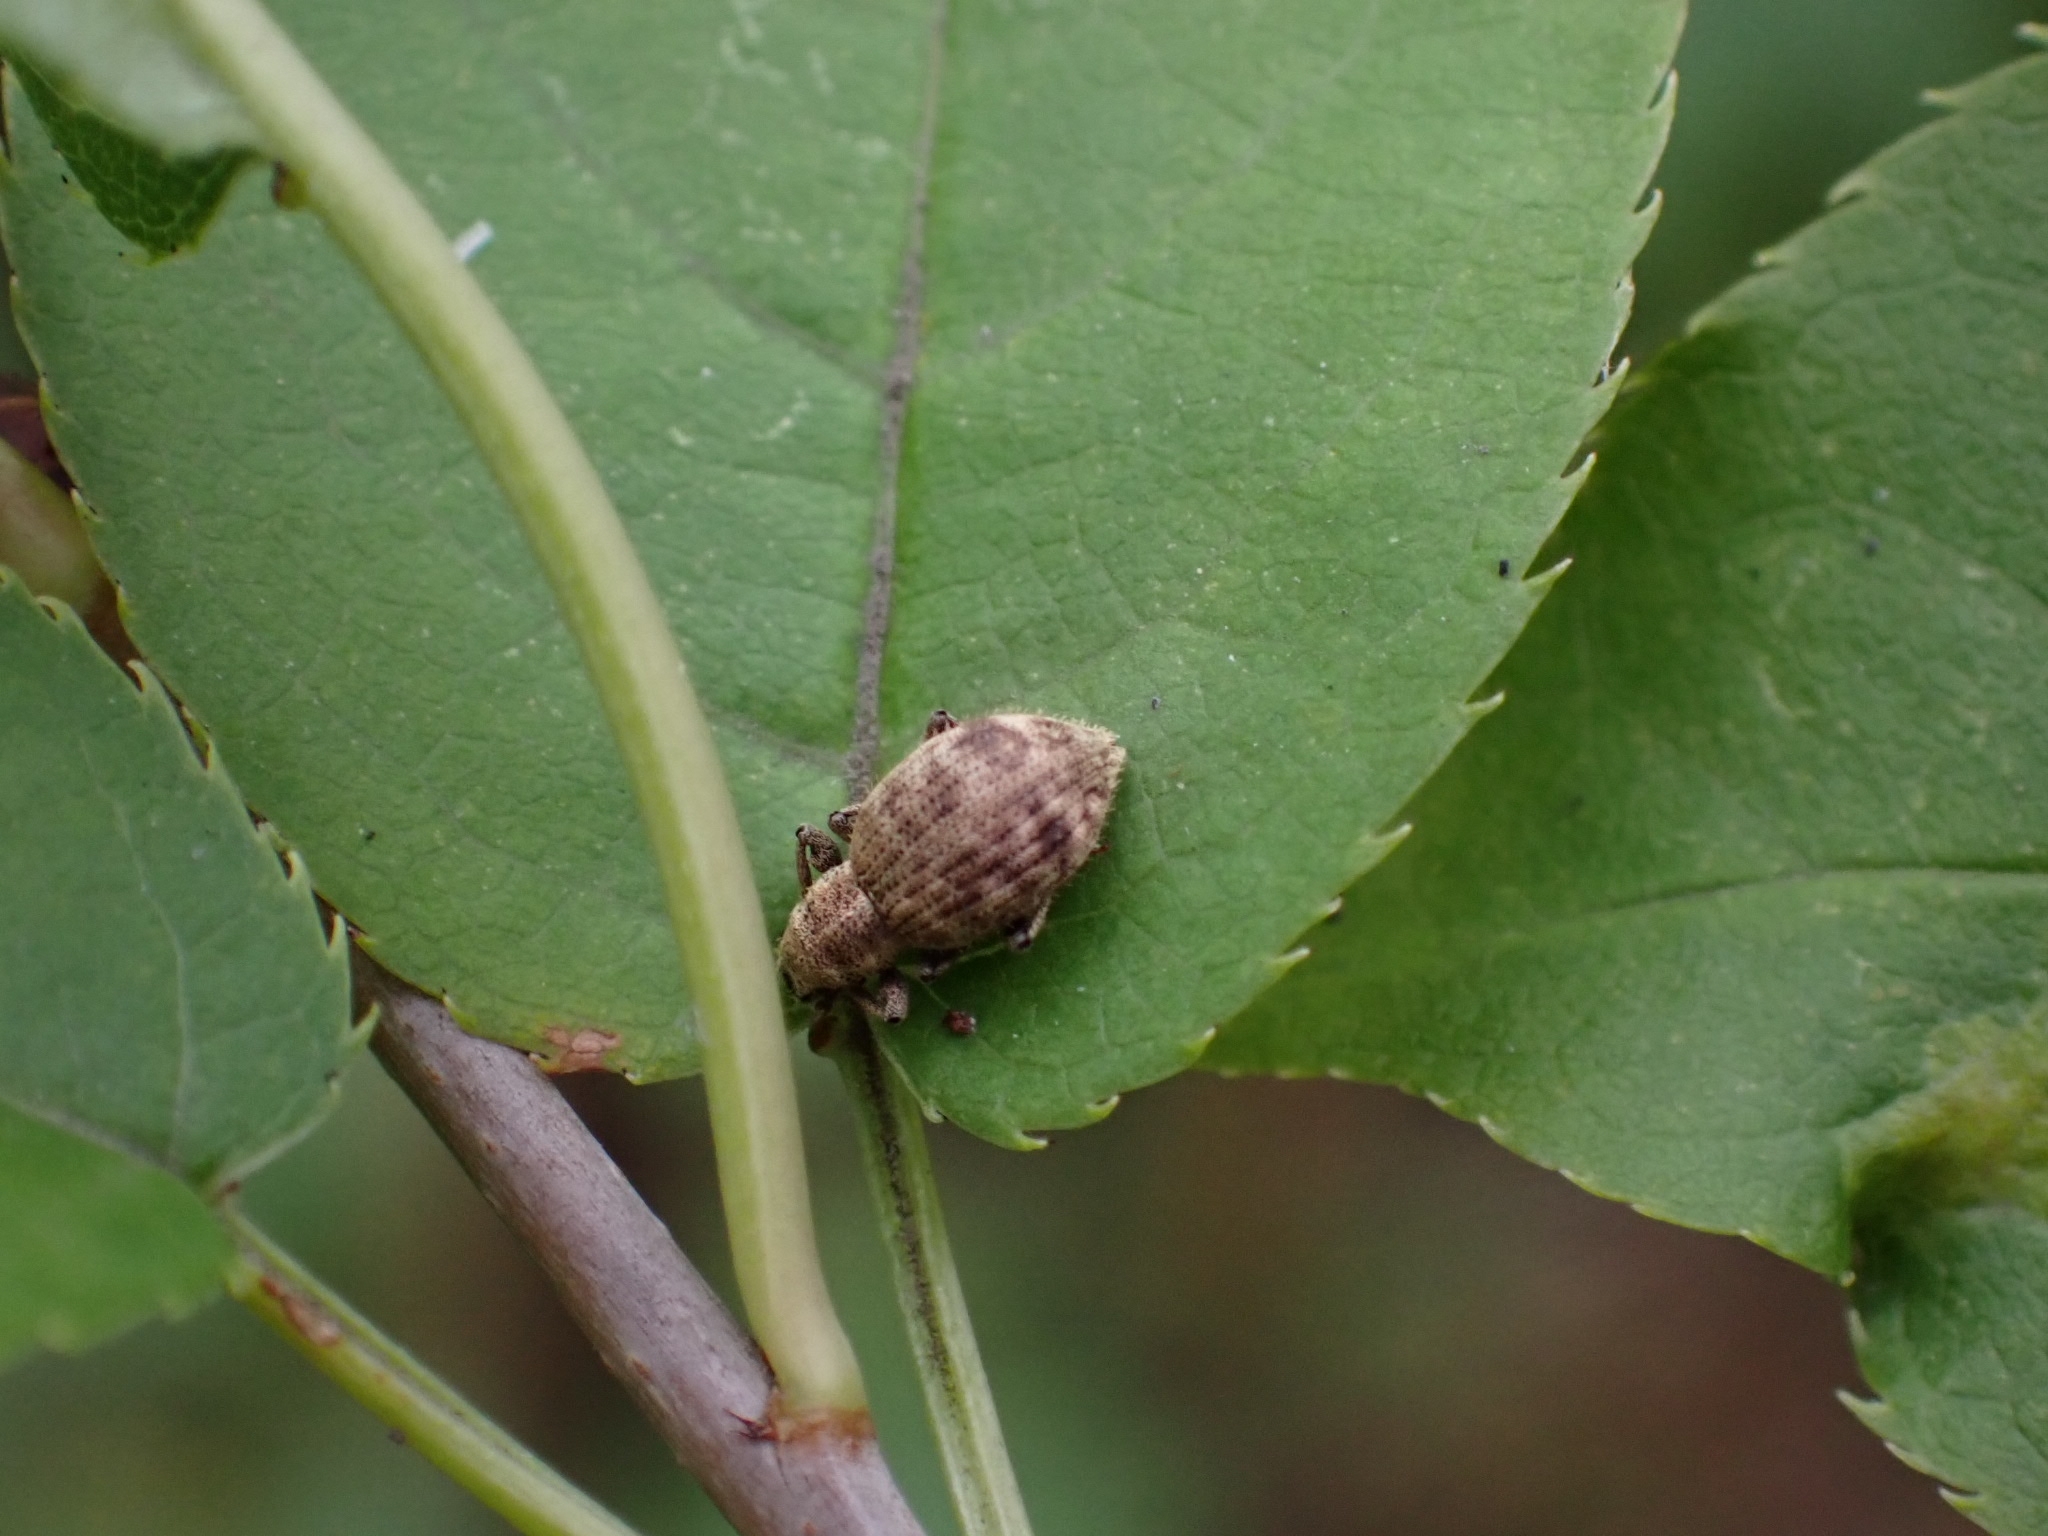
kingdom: Animalia
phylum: Arthropoda
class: Insecta
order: Coleoptera
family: Curculionidae
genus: Sciaphilus
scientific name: Sciaphilus asperatus
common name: Weevil
